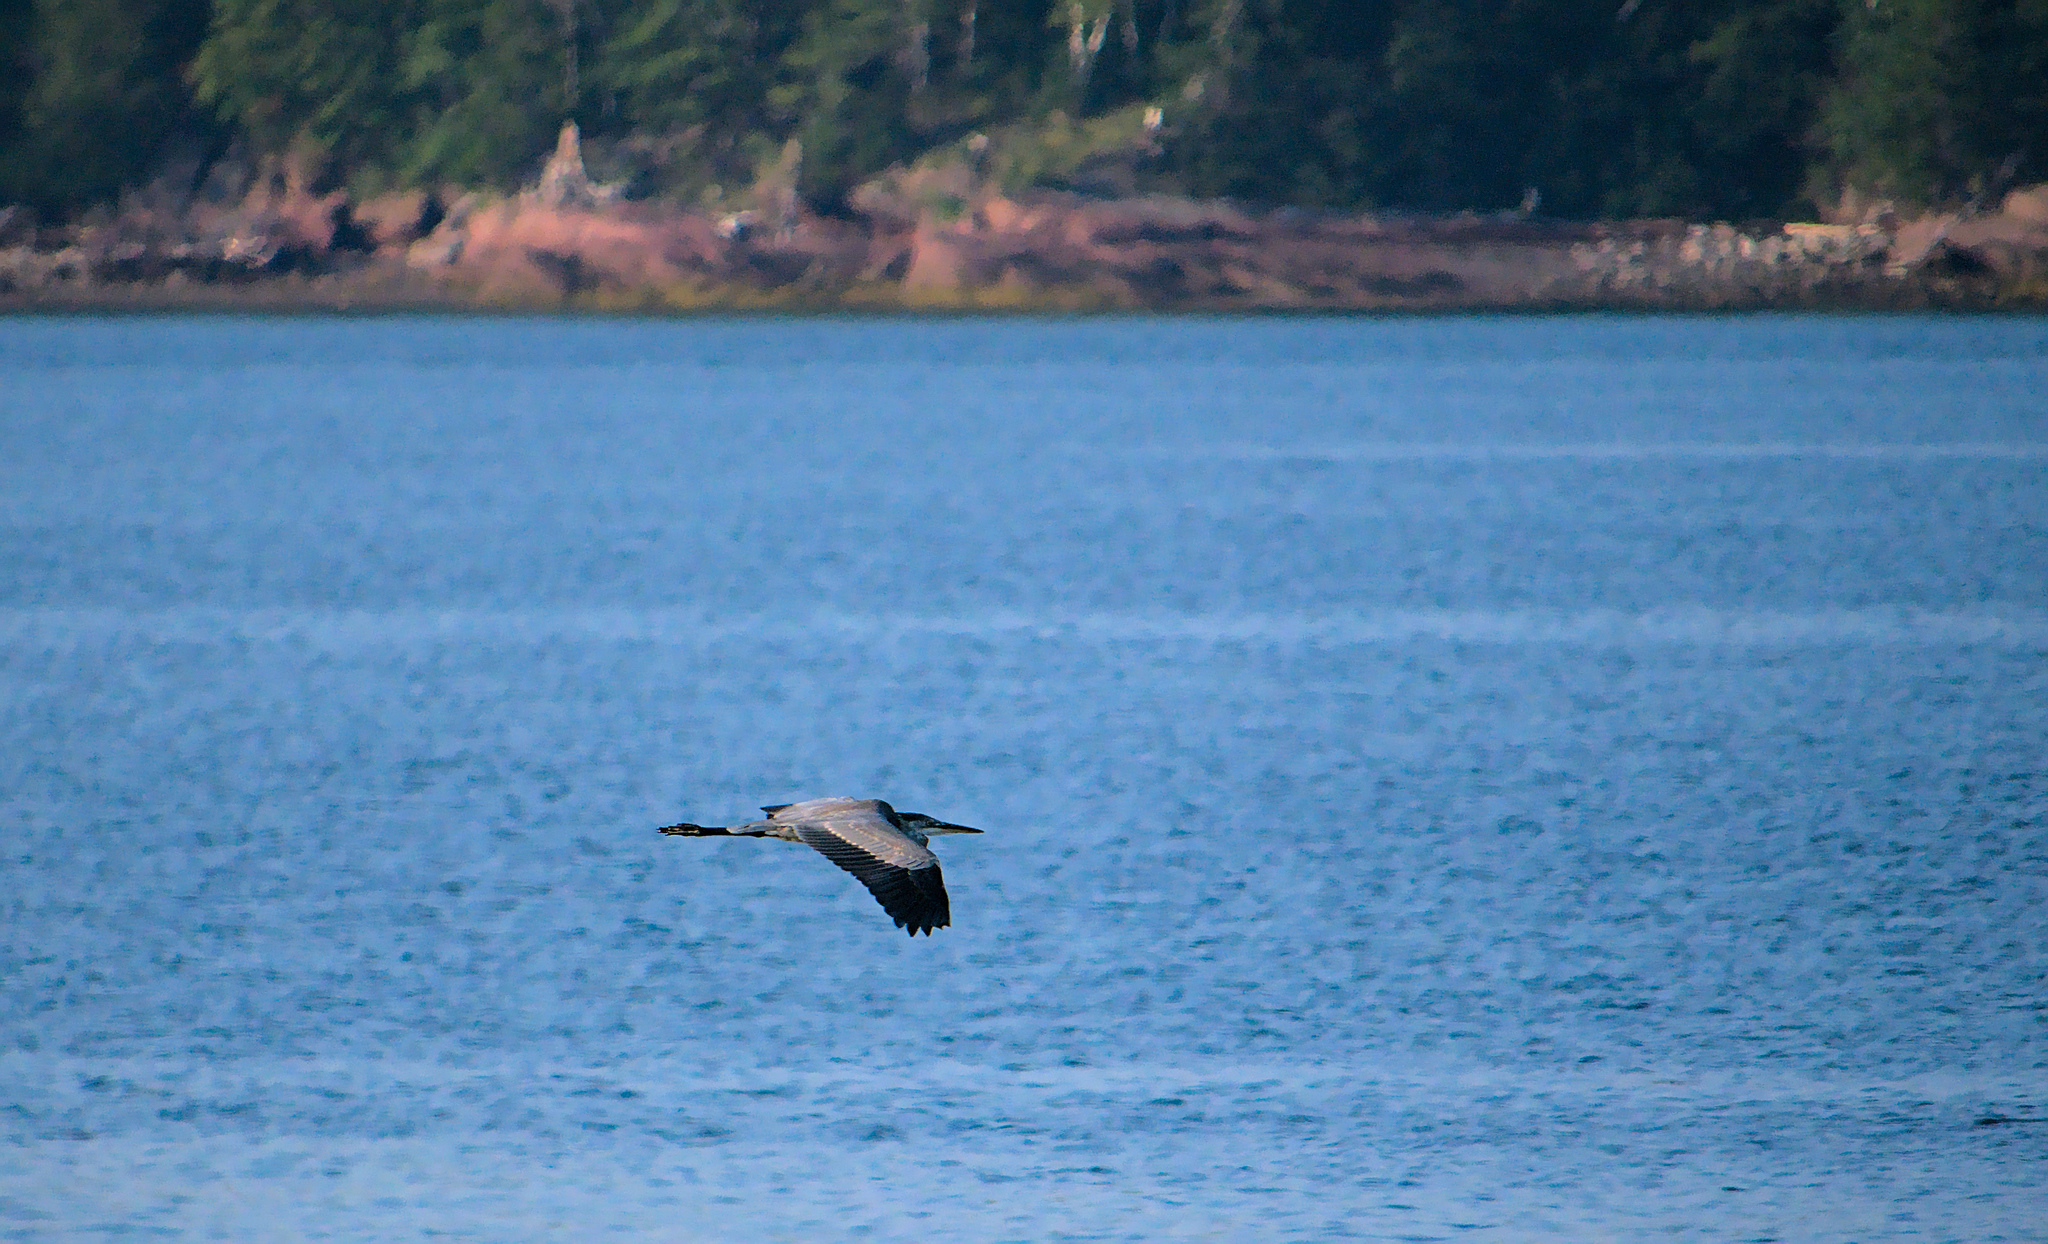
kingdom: Animalia
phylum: Chordata
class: Aves
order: Pelecaniformes
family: Ardeidae
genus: Ardea
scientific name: Ardea herodias
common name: Great blue heron
